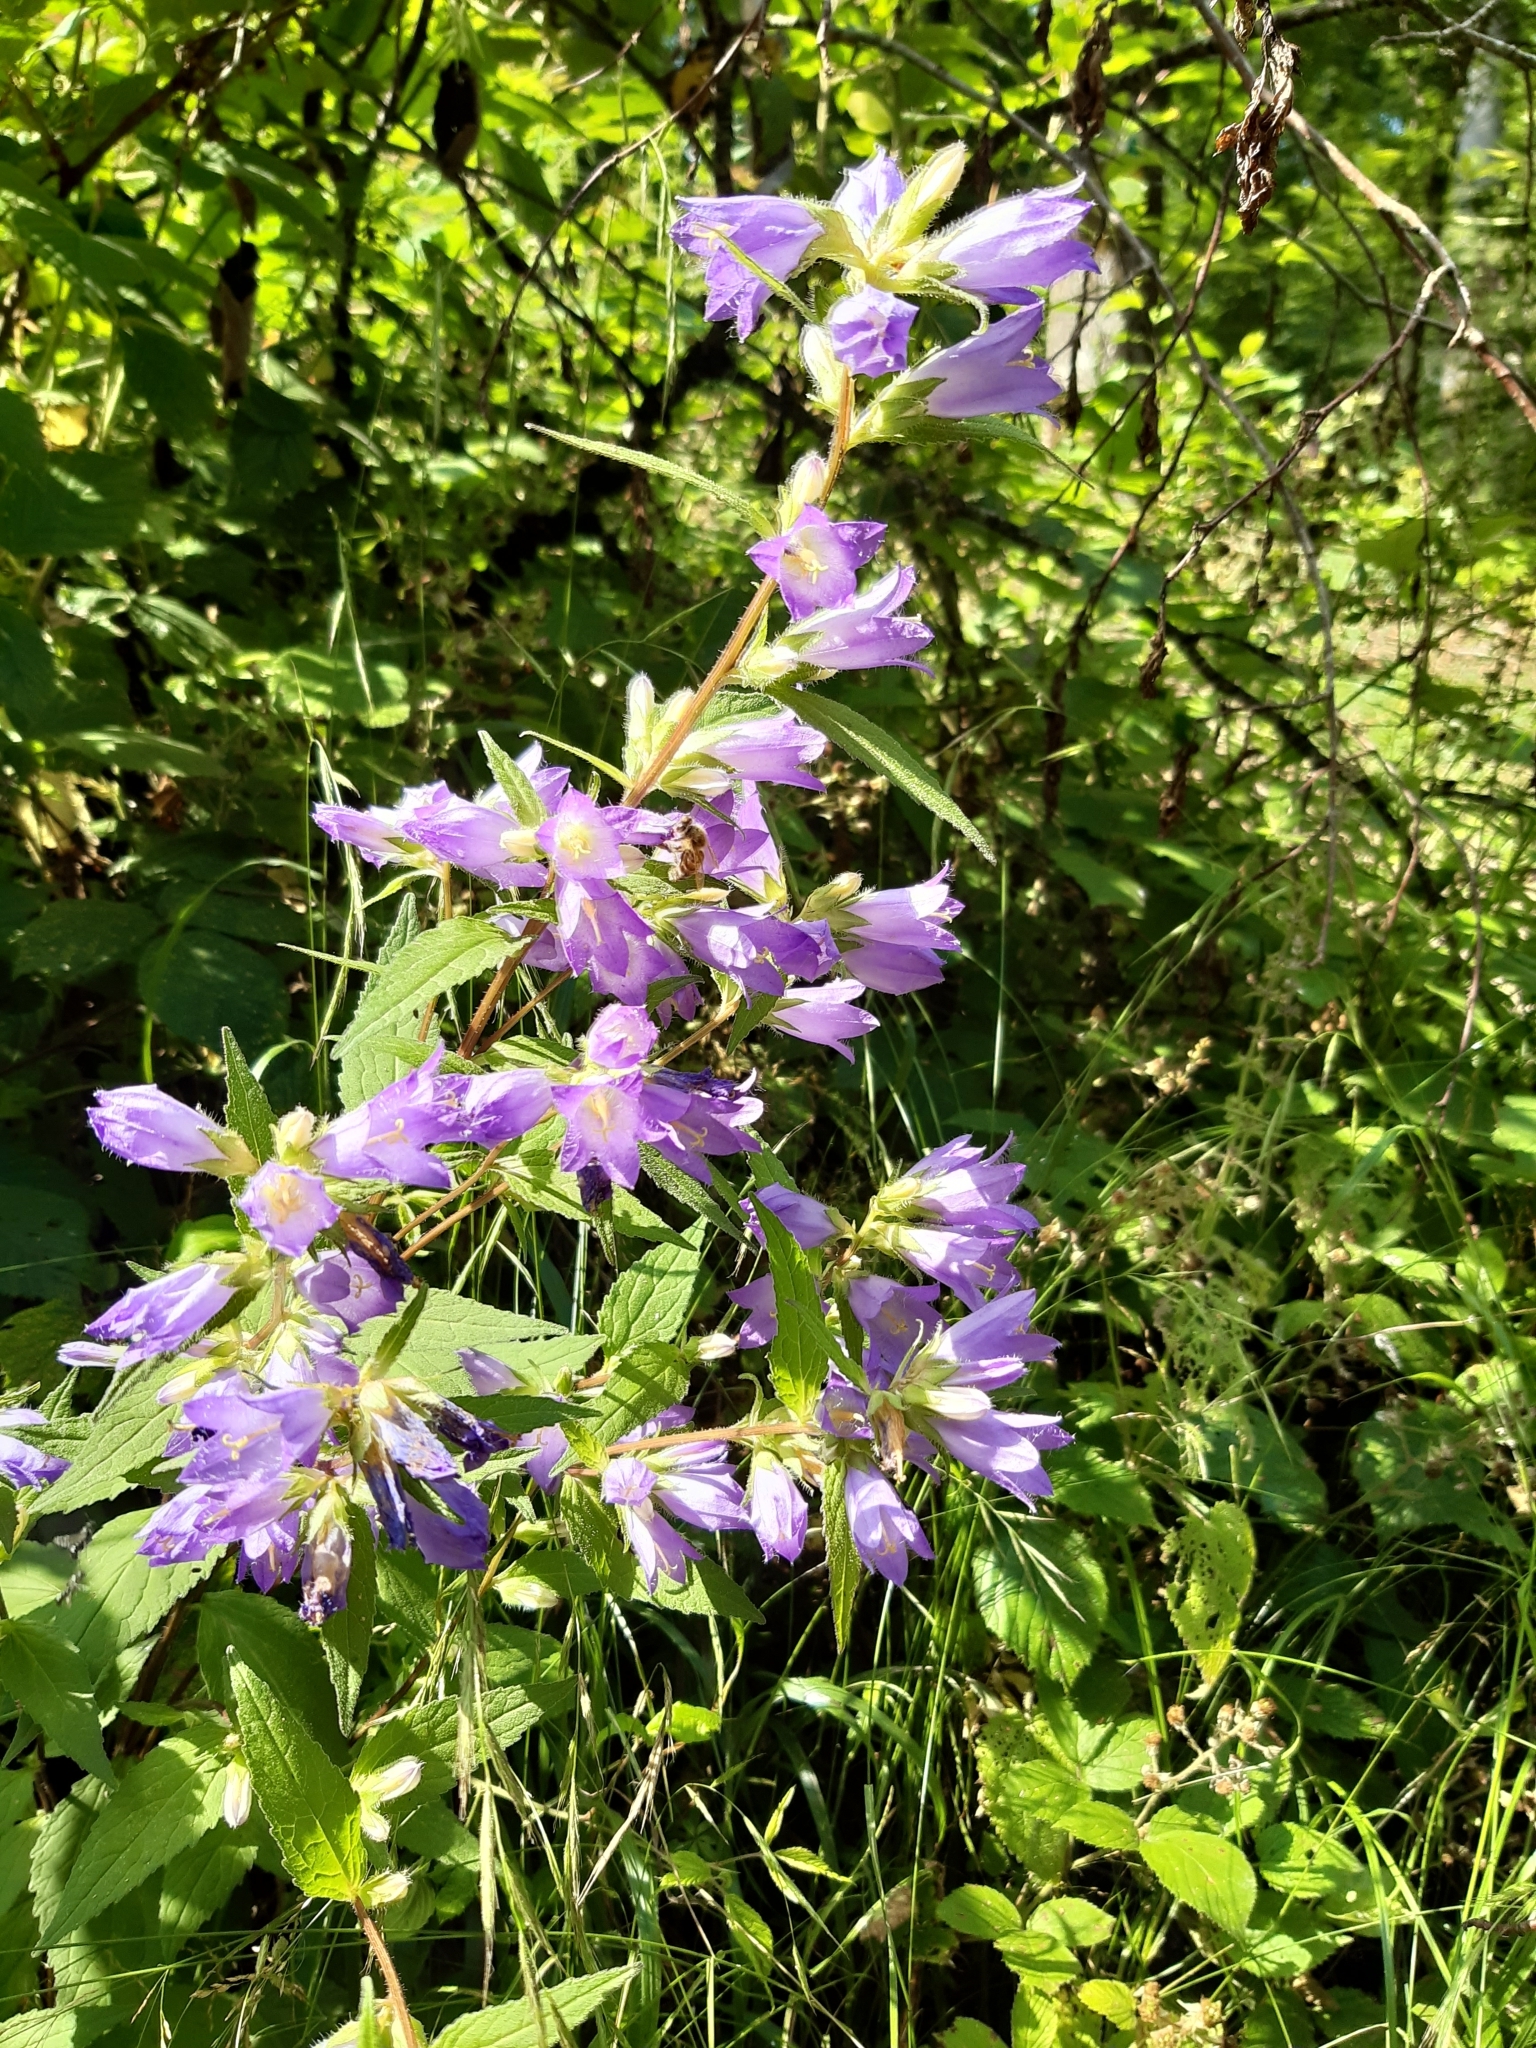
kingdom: Plantae
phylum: Tracheophyta
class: Magnoliopsida
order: Asterales
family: Campanulaceae
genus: Campanula
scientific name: Campanula trachelium
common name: Nettle-leaved bellflower
